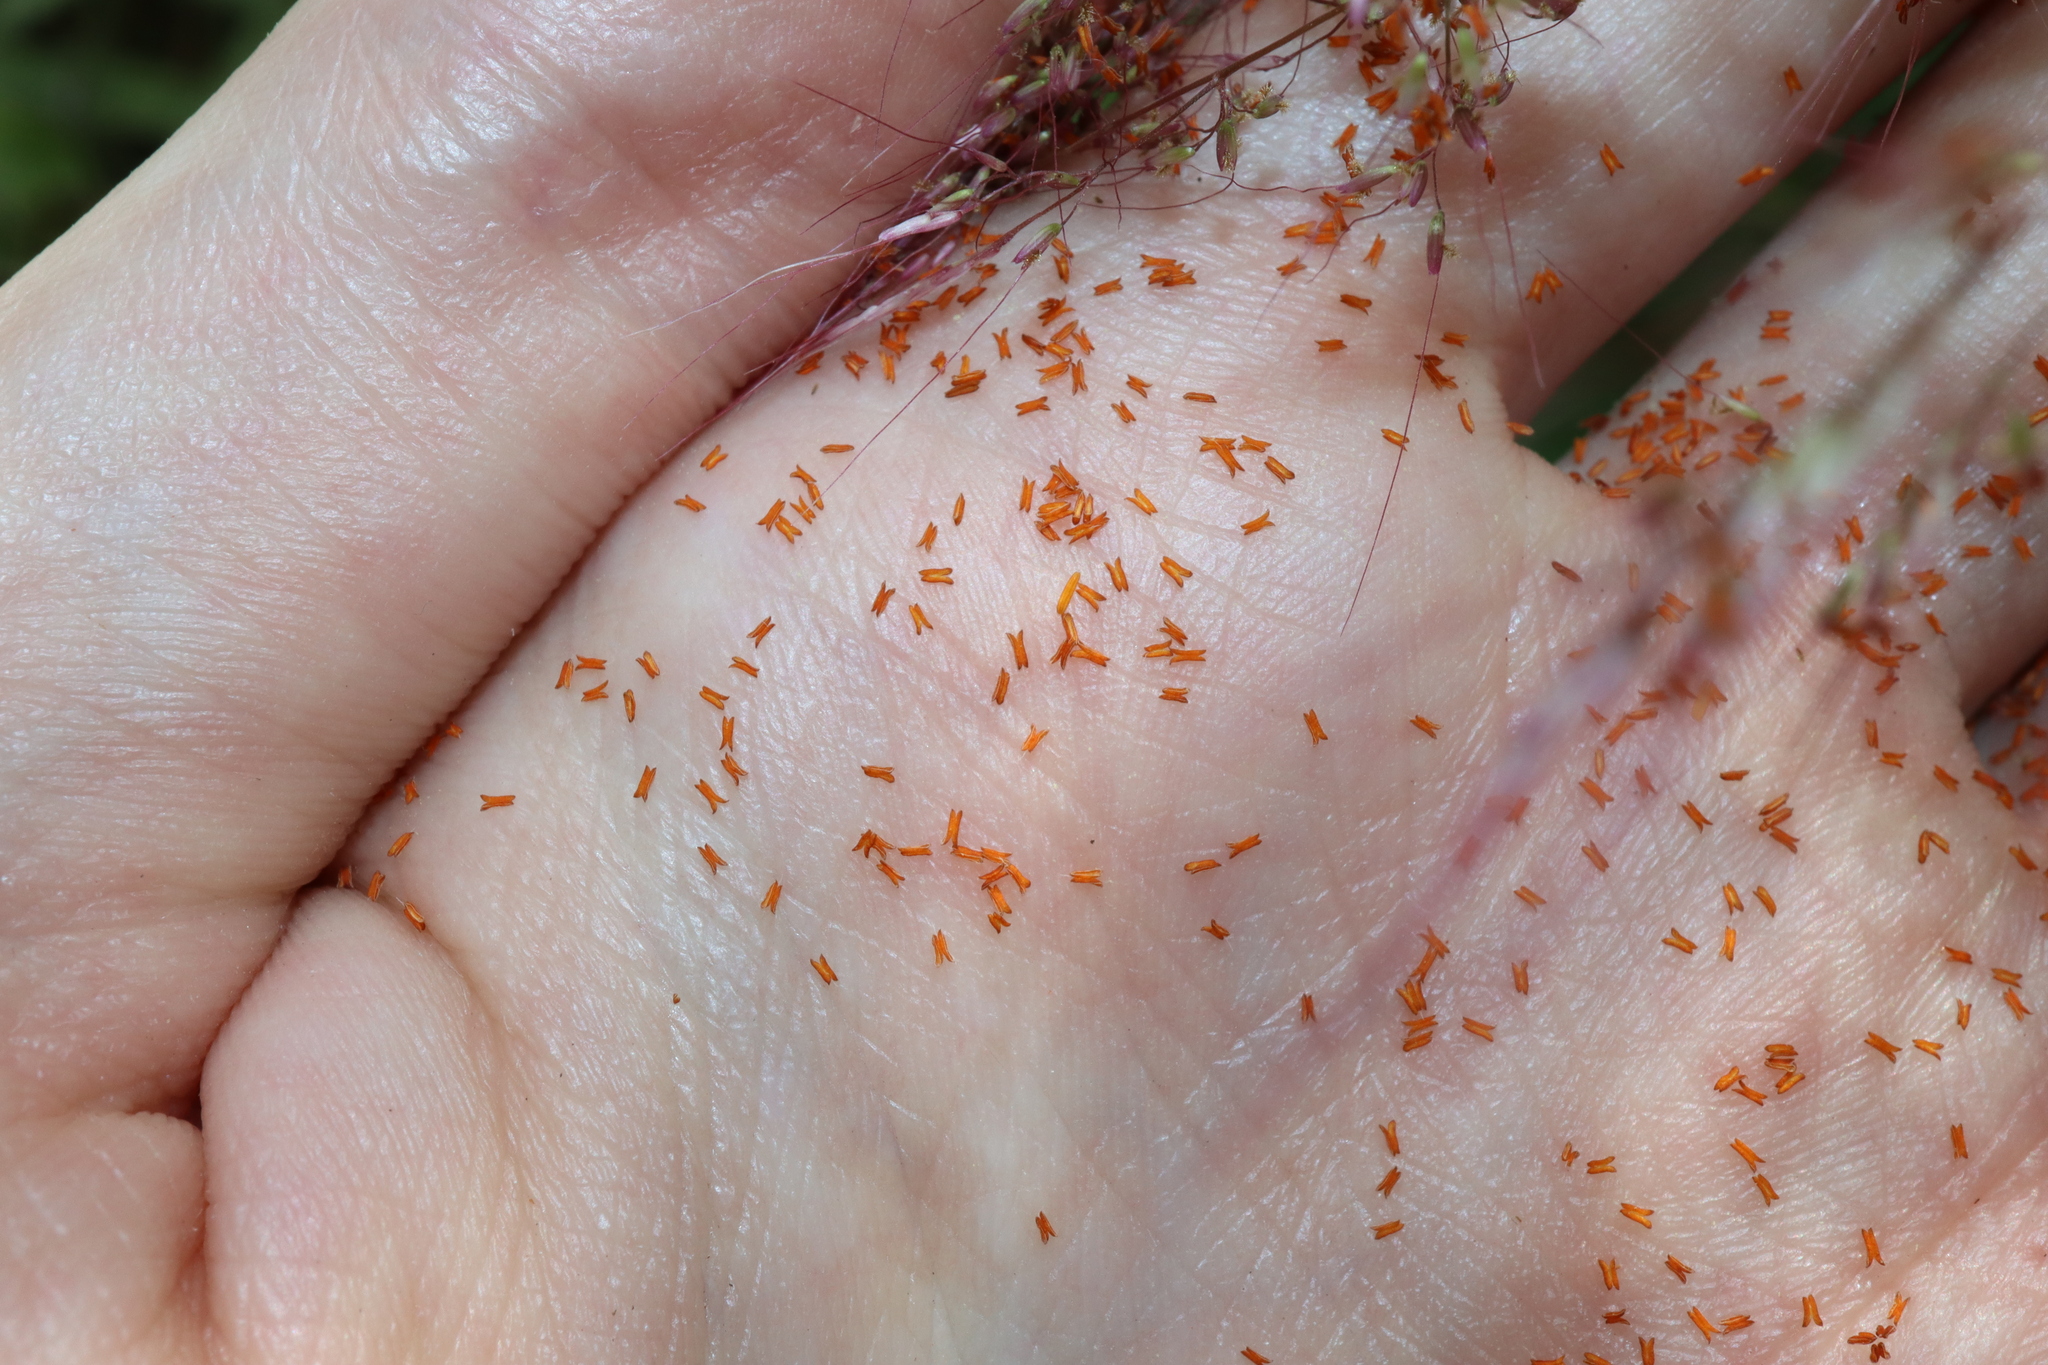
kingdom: Plantae
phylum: Tracheophyta
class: Liliopsida
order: Poales
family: Poaceae
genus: Melinis
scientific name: Melinis minutiflora
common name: Molassesgrass
